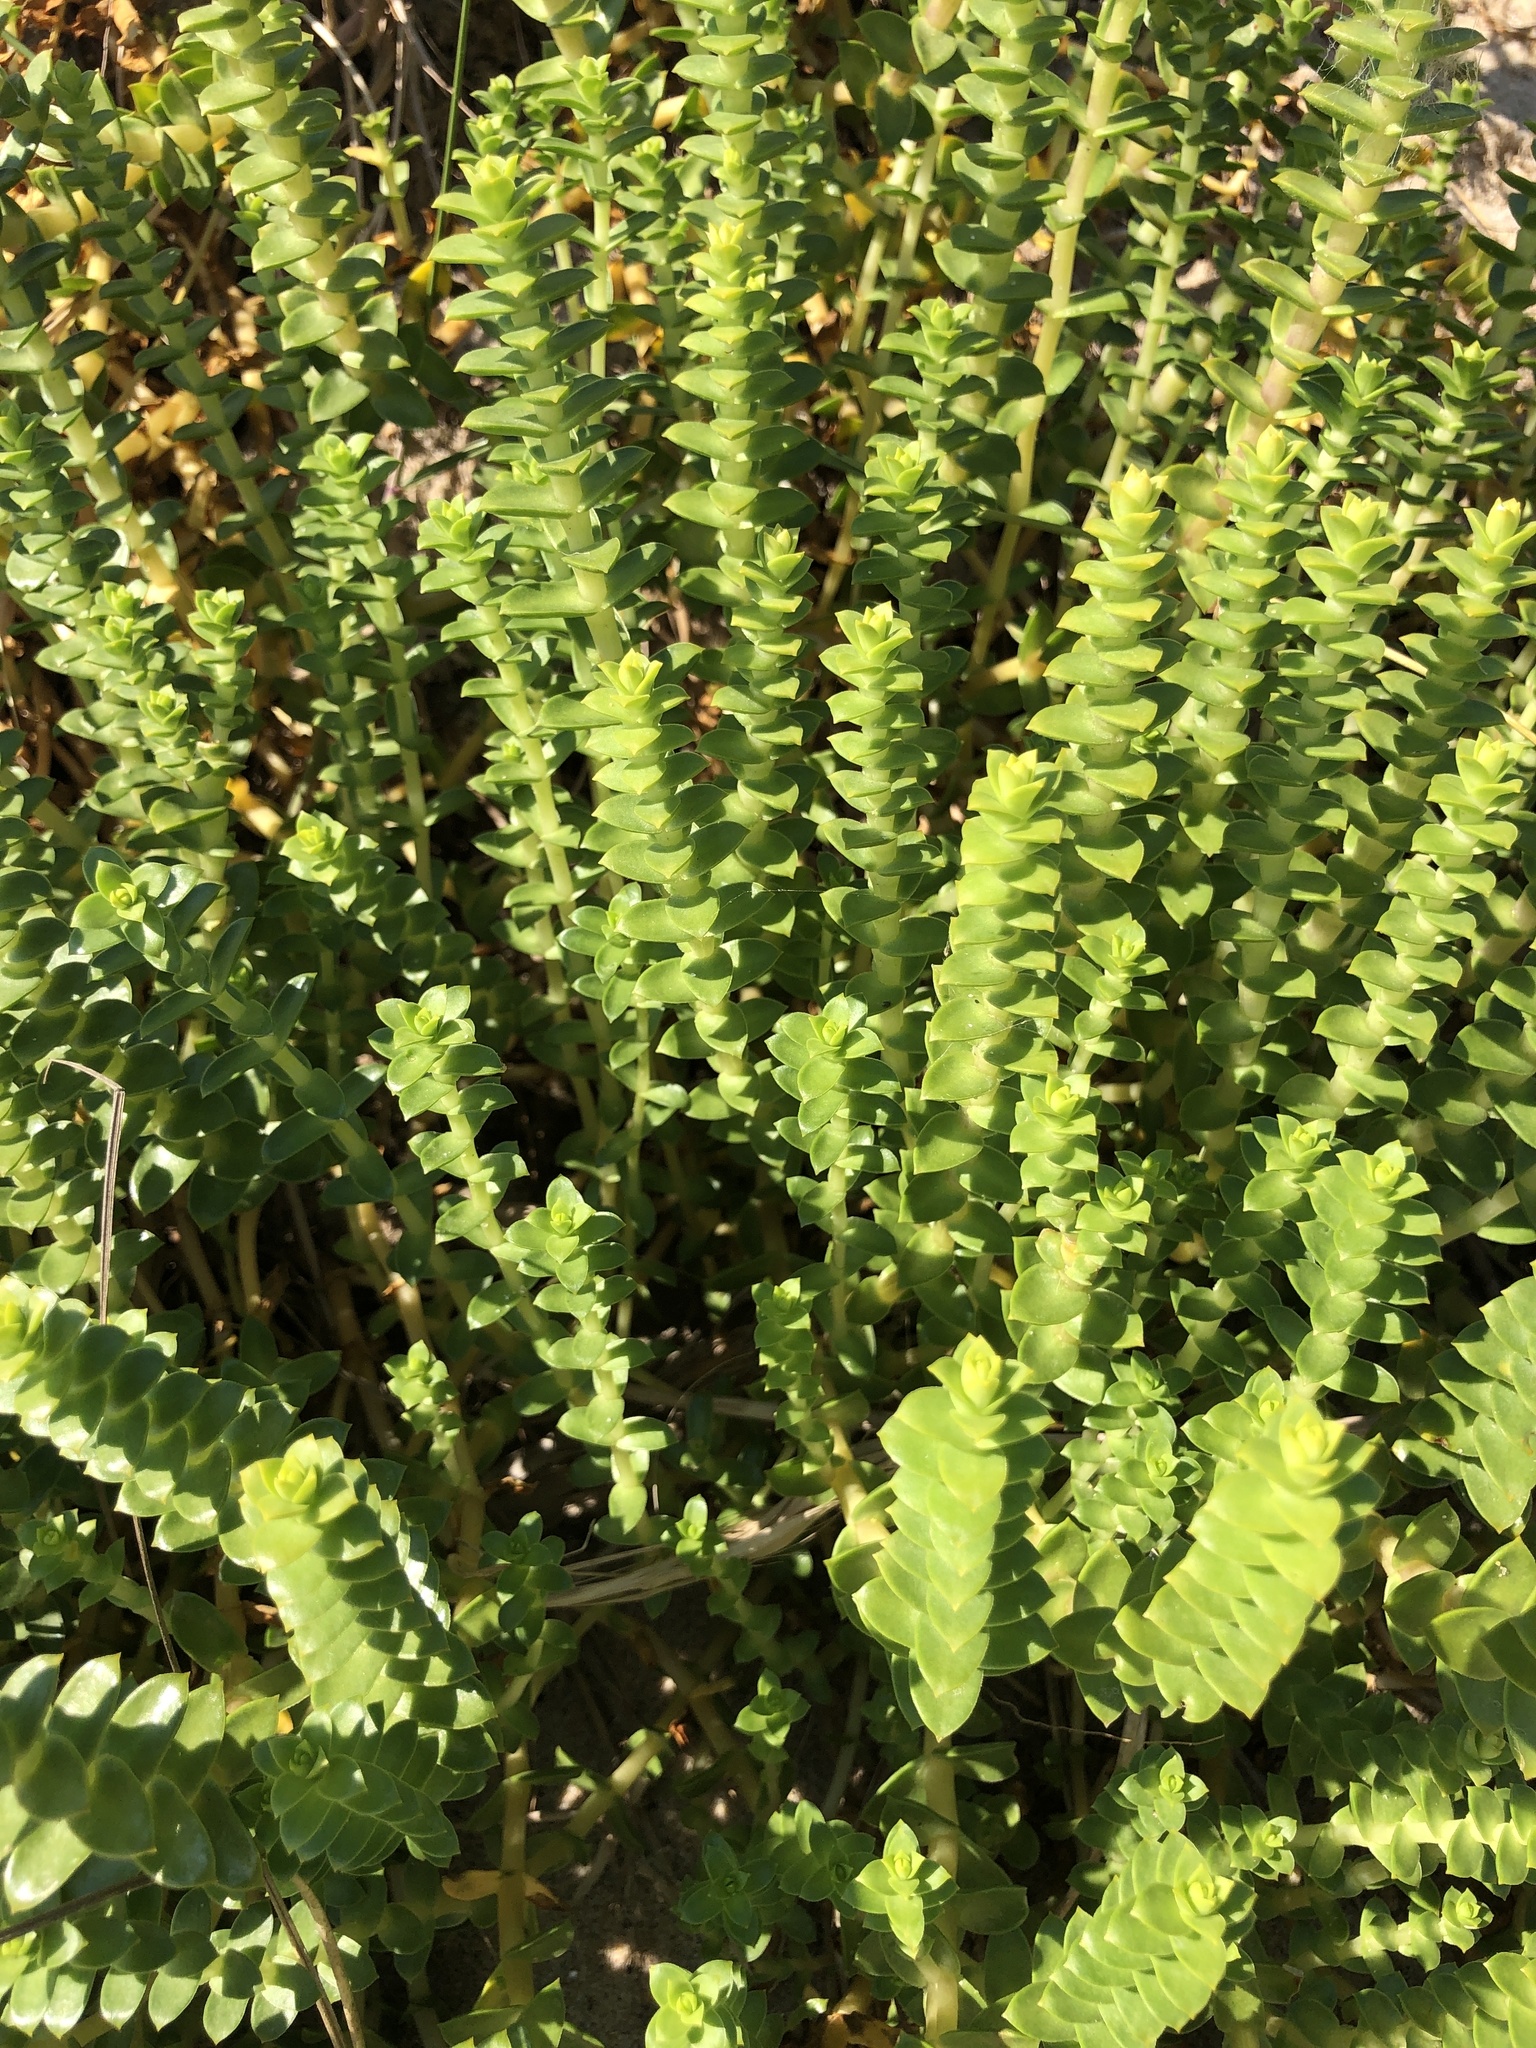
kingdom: Plantae
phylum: Tracheophyta
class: Magnoliopsida
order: Caryophyllales
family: Caryophyllaceae
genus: Honckenya
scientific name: Honckenya peploides
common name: Sea sandwort
